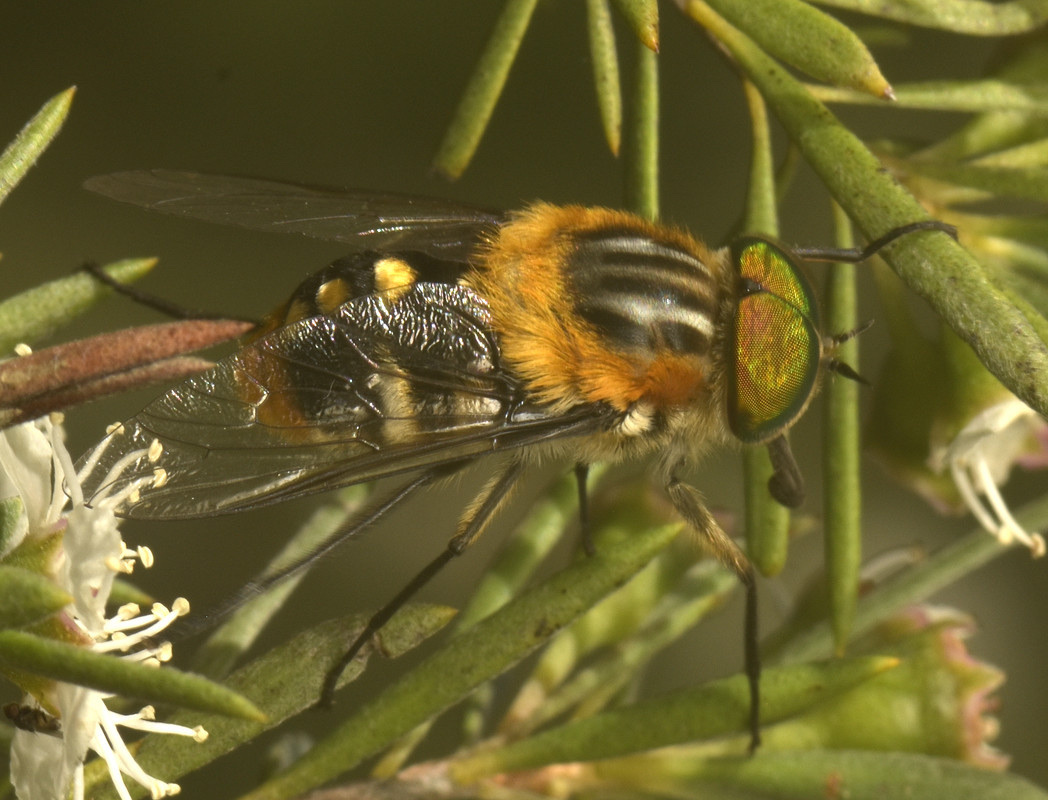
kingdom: Animalia
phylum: Arthropoda
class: Insecta
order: Diptera
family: Tabanidae
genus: Scaptia
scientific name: Scaptia auriflua
